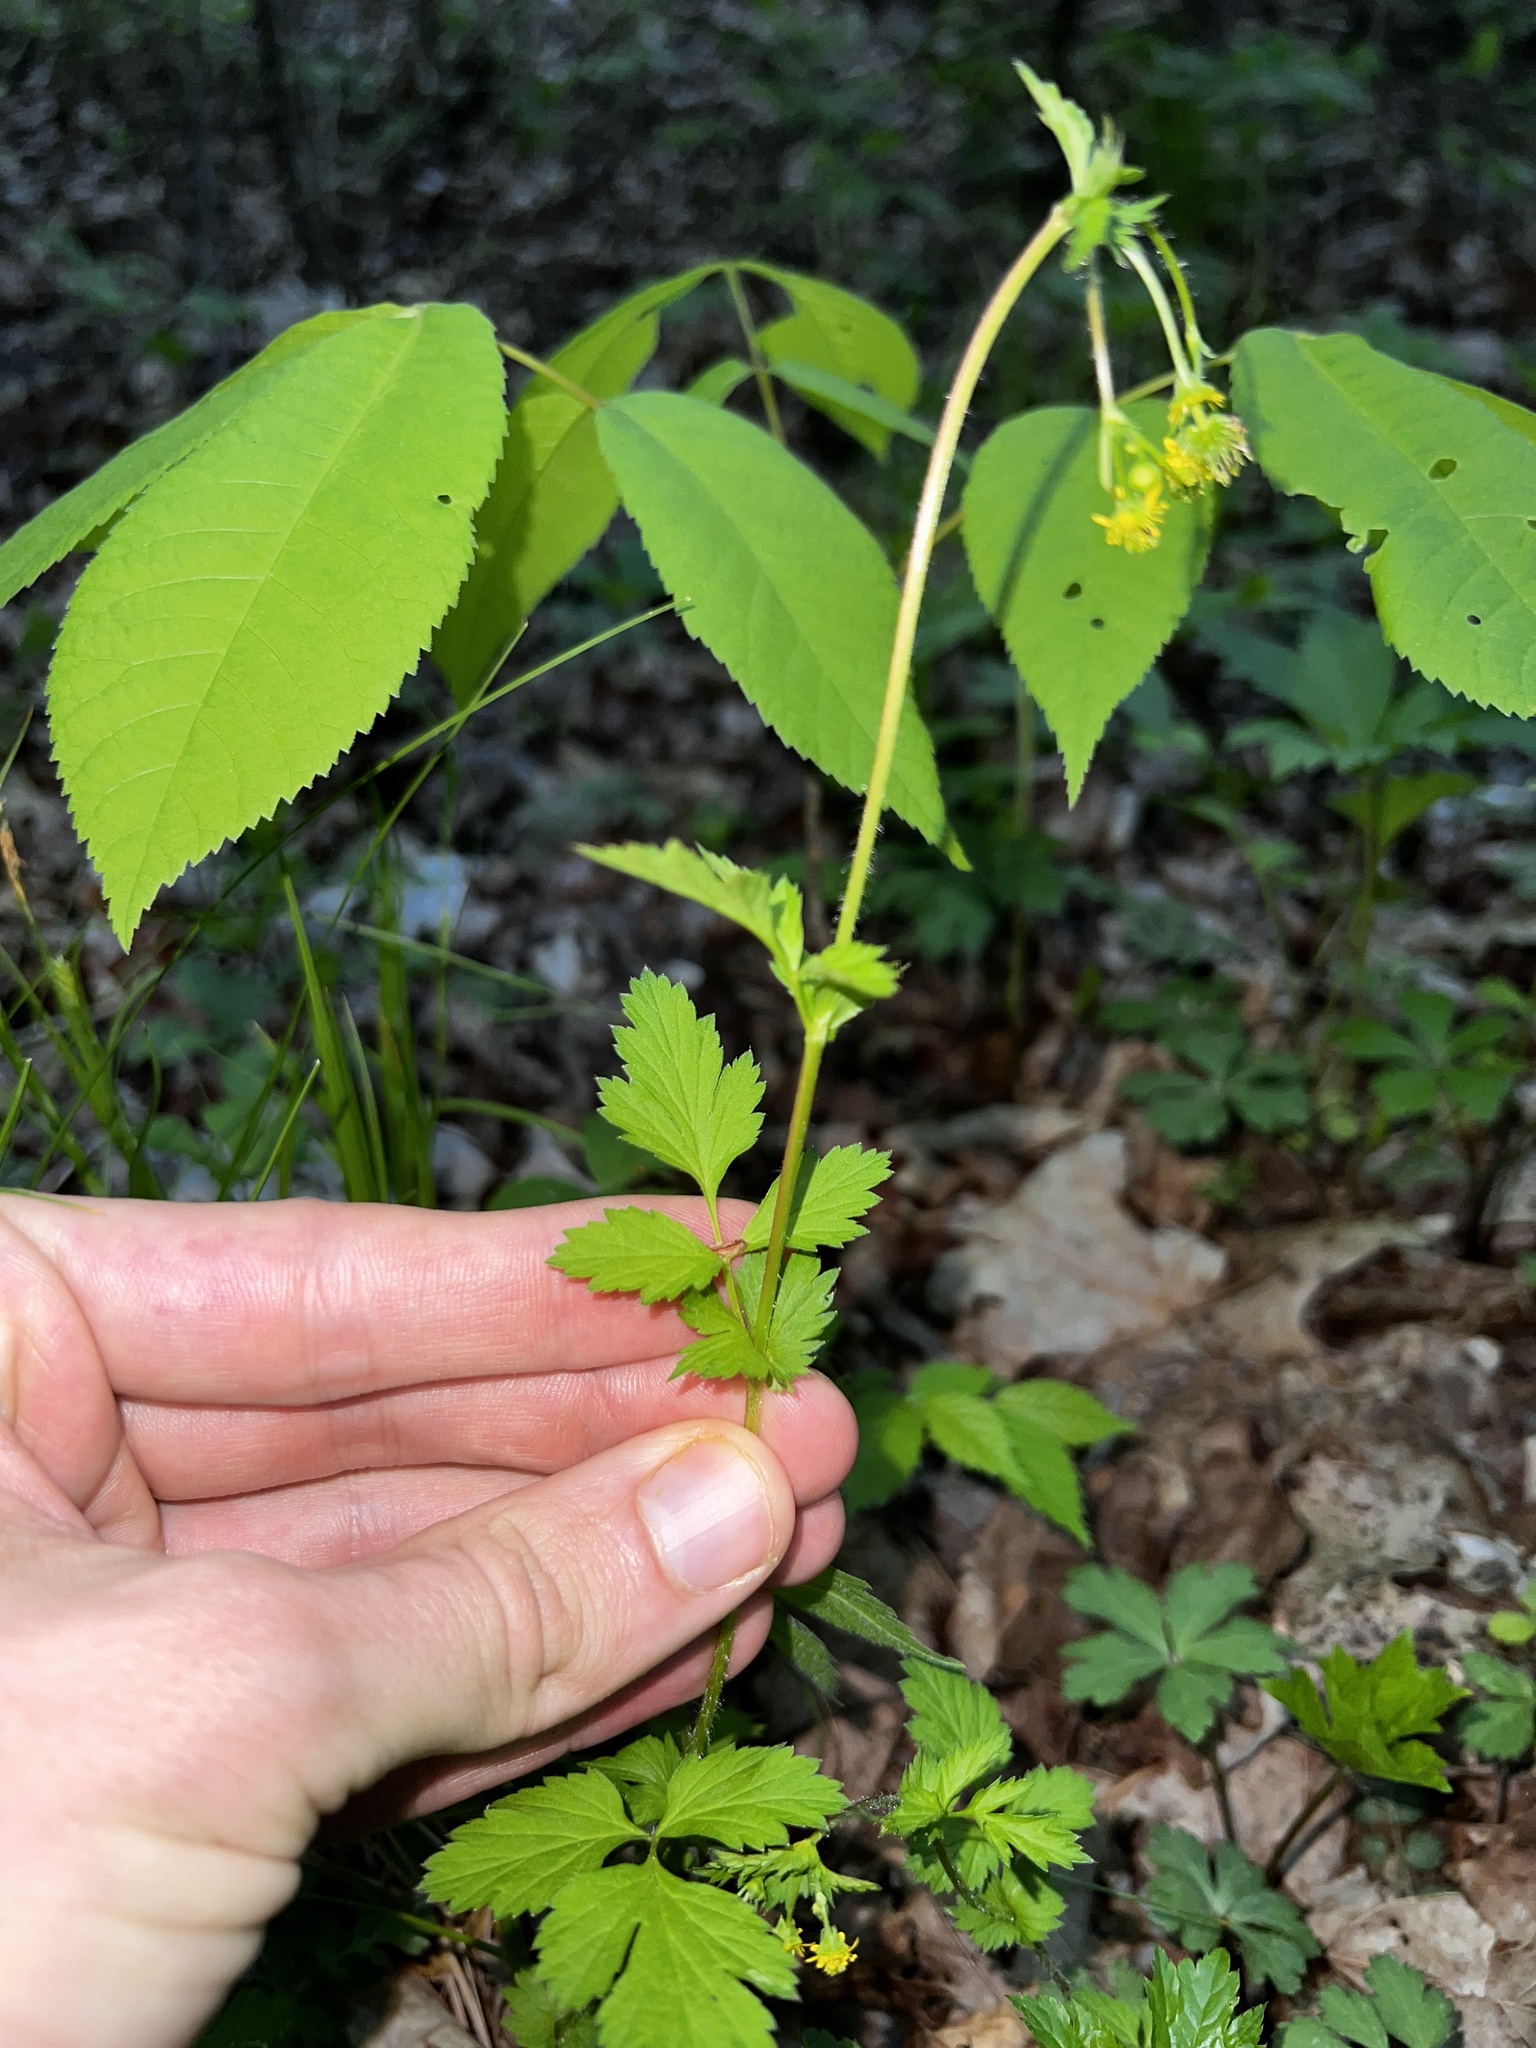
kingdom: Plantae
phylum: Tracheophyta
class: Magnoliopsida
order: Rosales
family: Rosaceae
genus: Geum
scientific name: Geum vernum
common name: Spring avens
